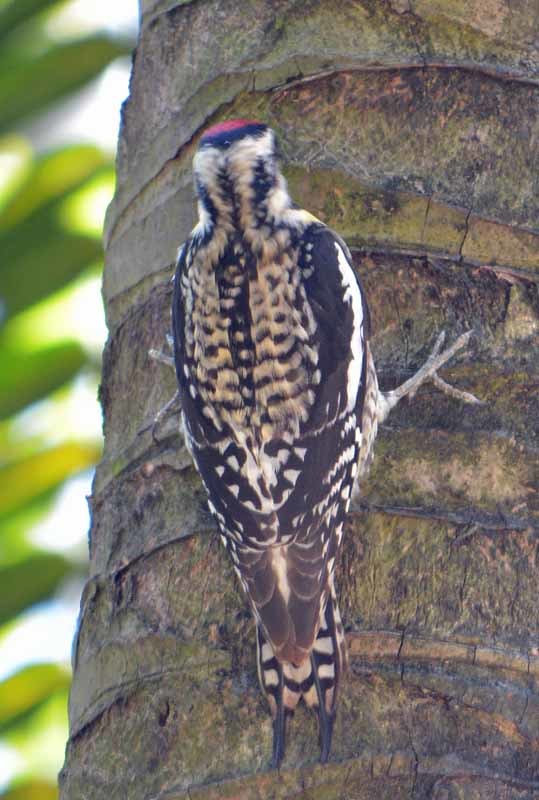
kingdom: Animalia
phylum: Chordata
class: Aves
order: Piciformes
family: Picidae
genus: Sphyrapicus
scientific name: Sphyrapicus varius
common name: Yellow-bellied sapsucker
